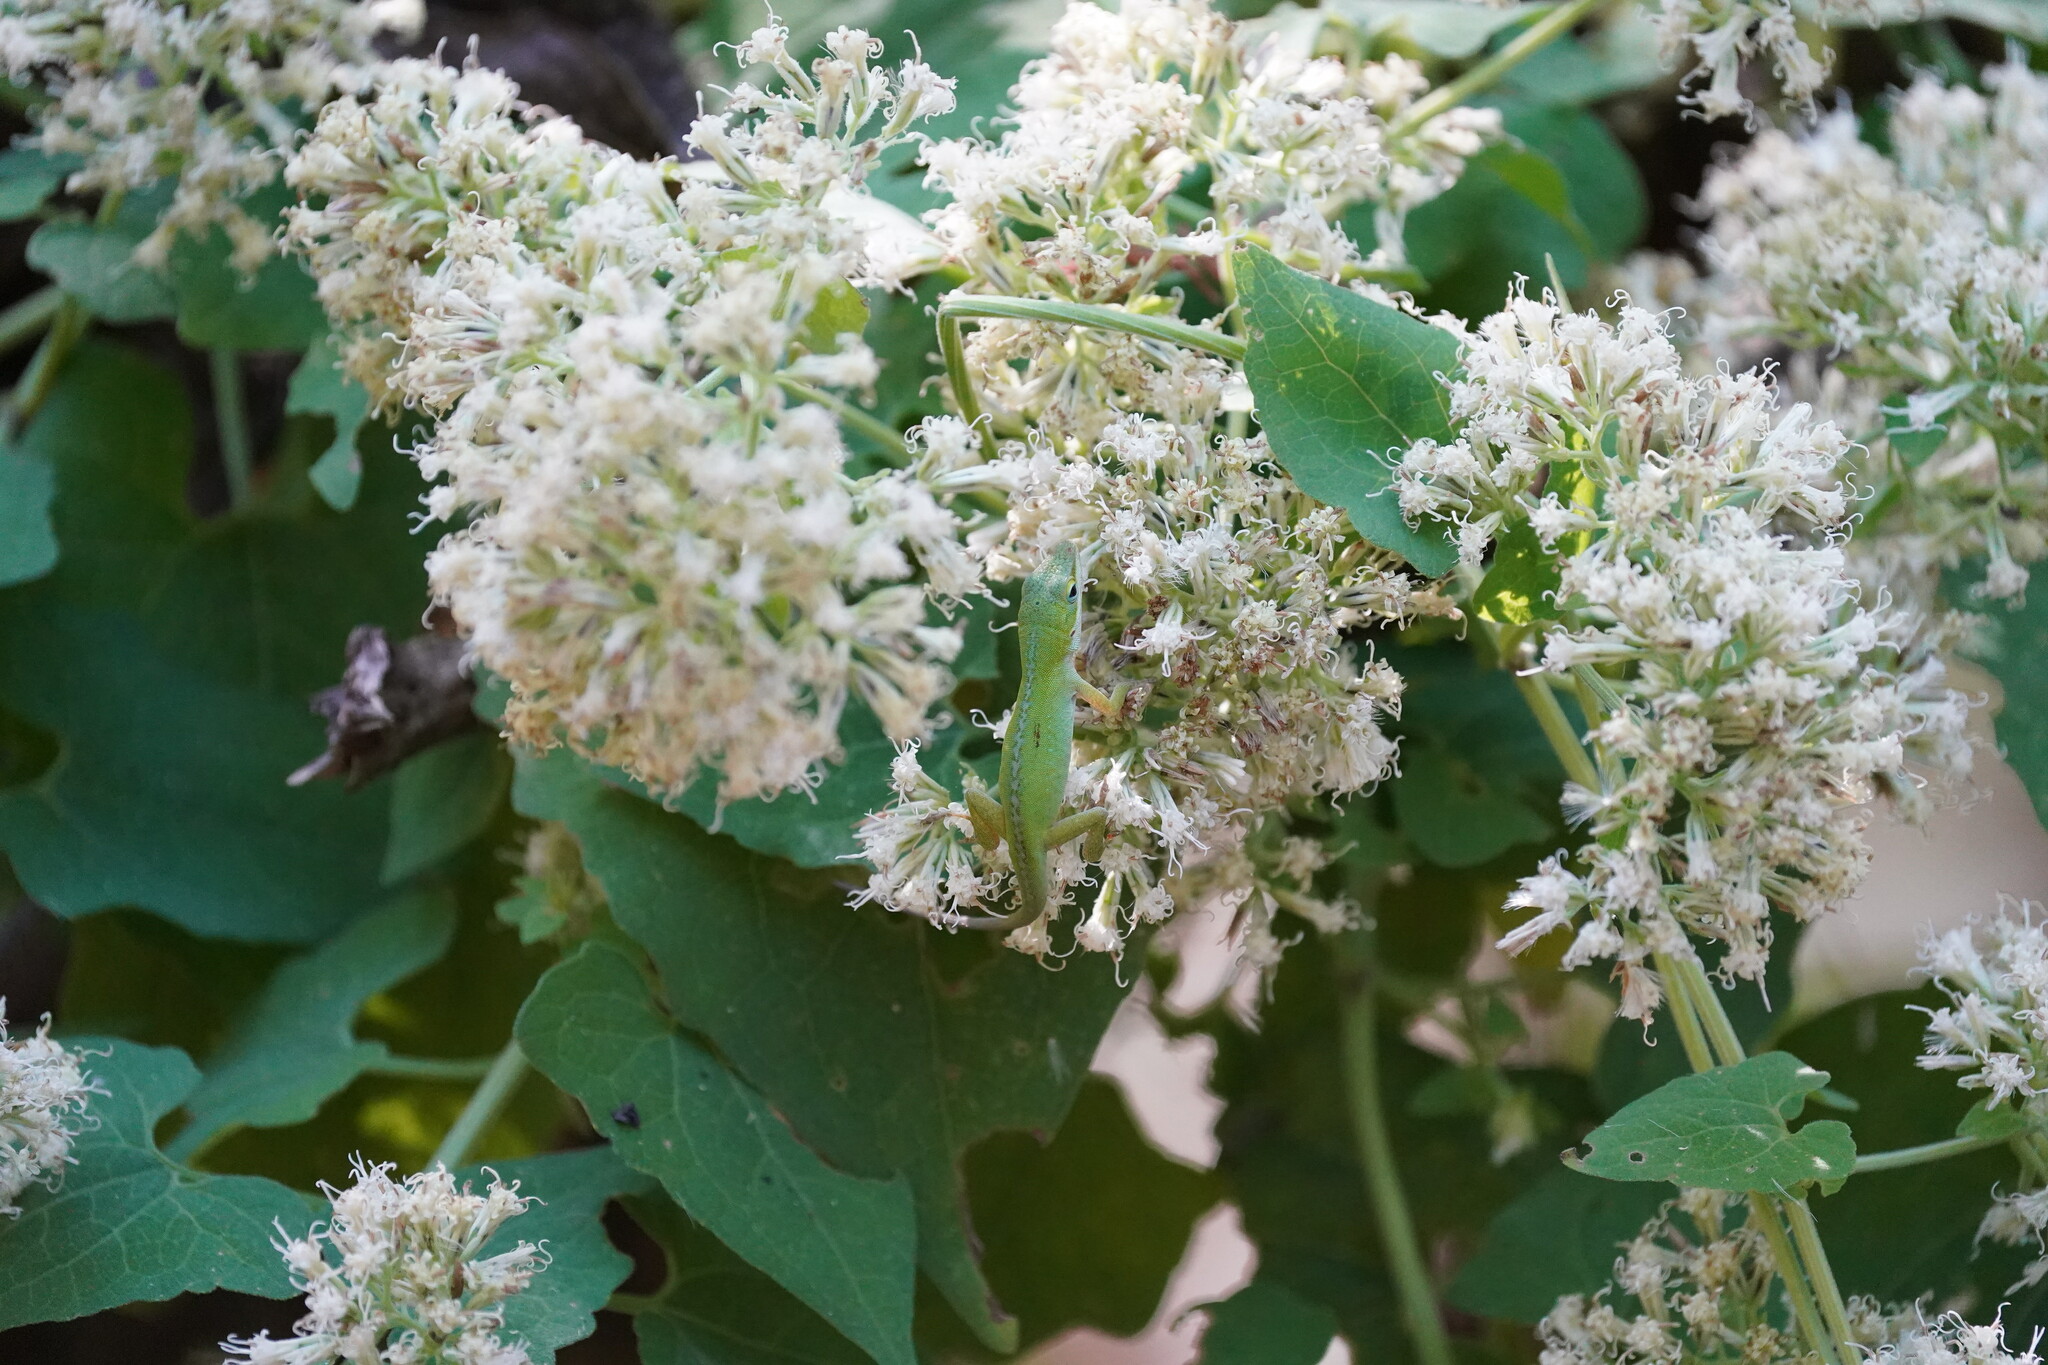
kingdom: Animalia
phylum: Chordata
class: Squamata
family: Dactyloidae
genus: Anolis
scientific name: Anolis carolinensis
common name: Green anole
